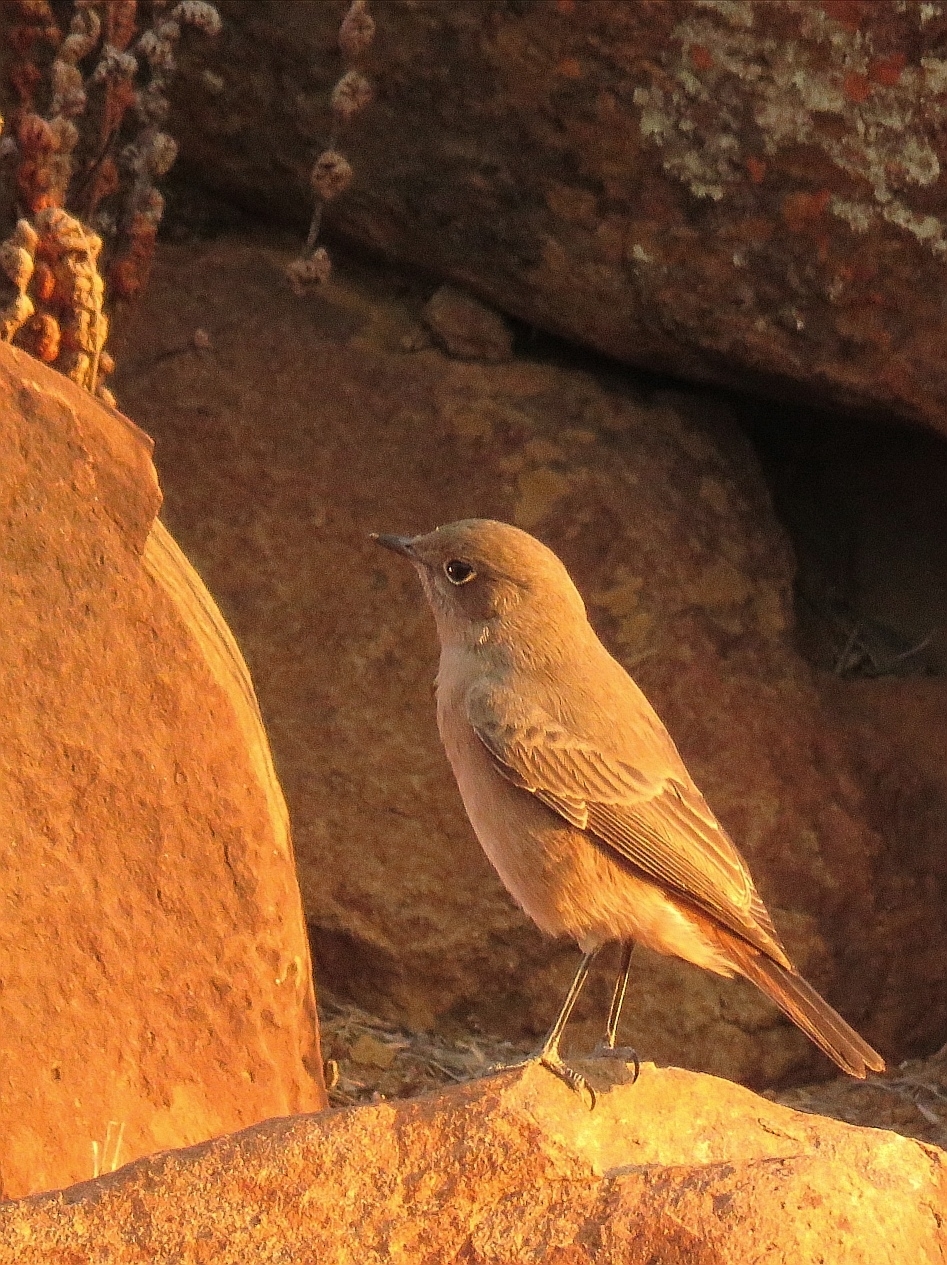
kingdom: Animalia
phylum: Chordata
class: Aves
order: Passeriformes
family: Muscicapidae
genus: Oenanthe
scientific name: Oenanthe familiaris
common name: Familiar chat
